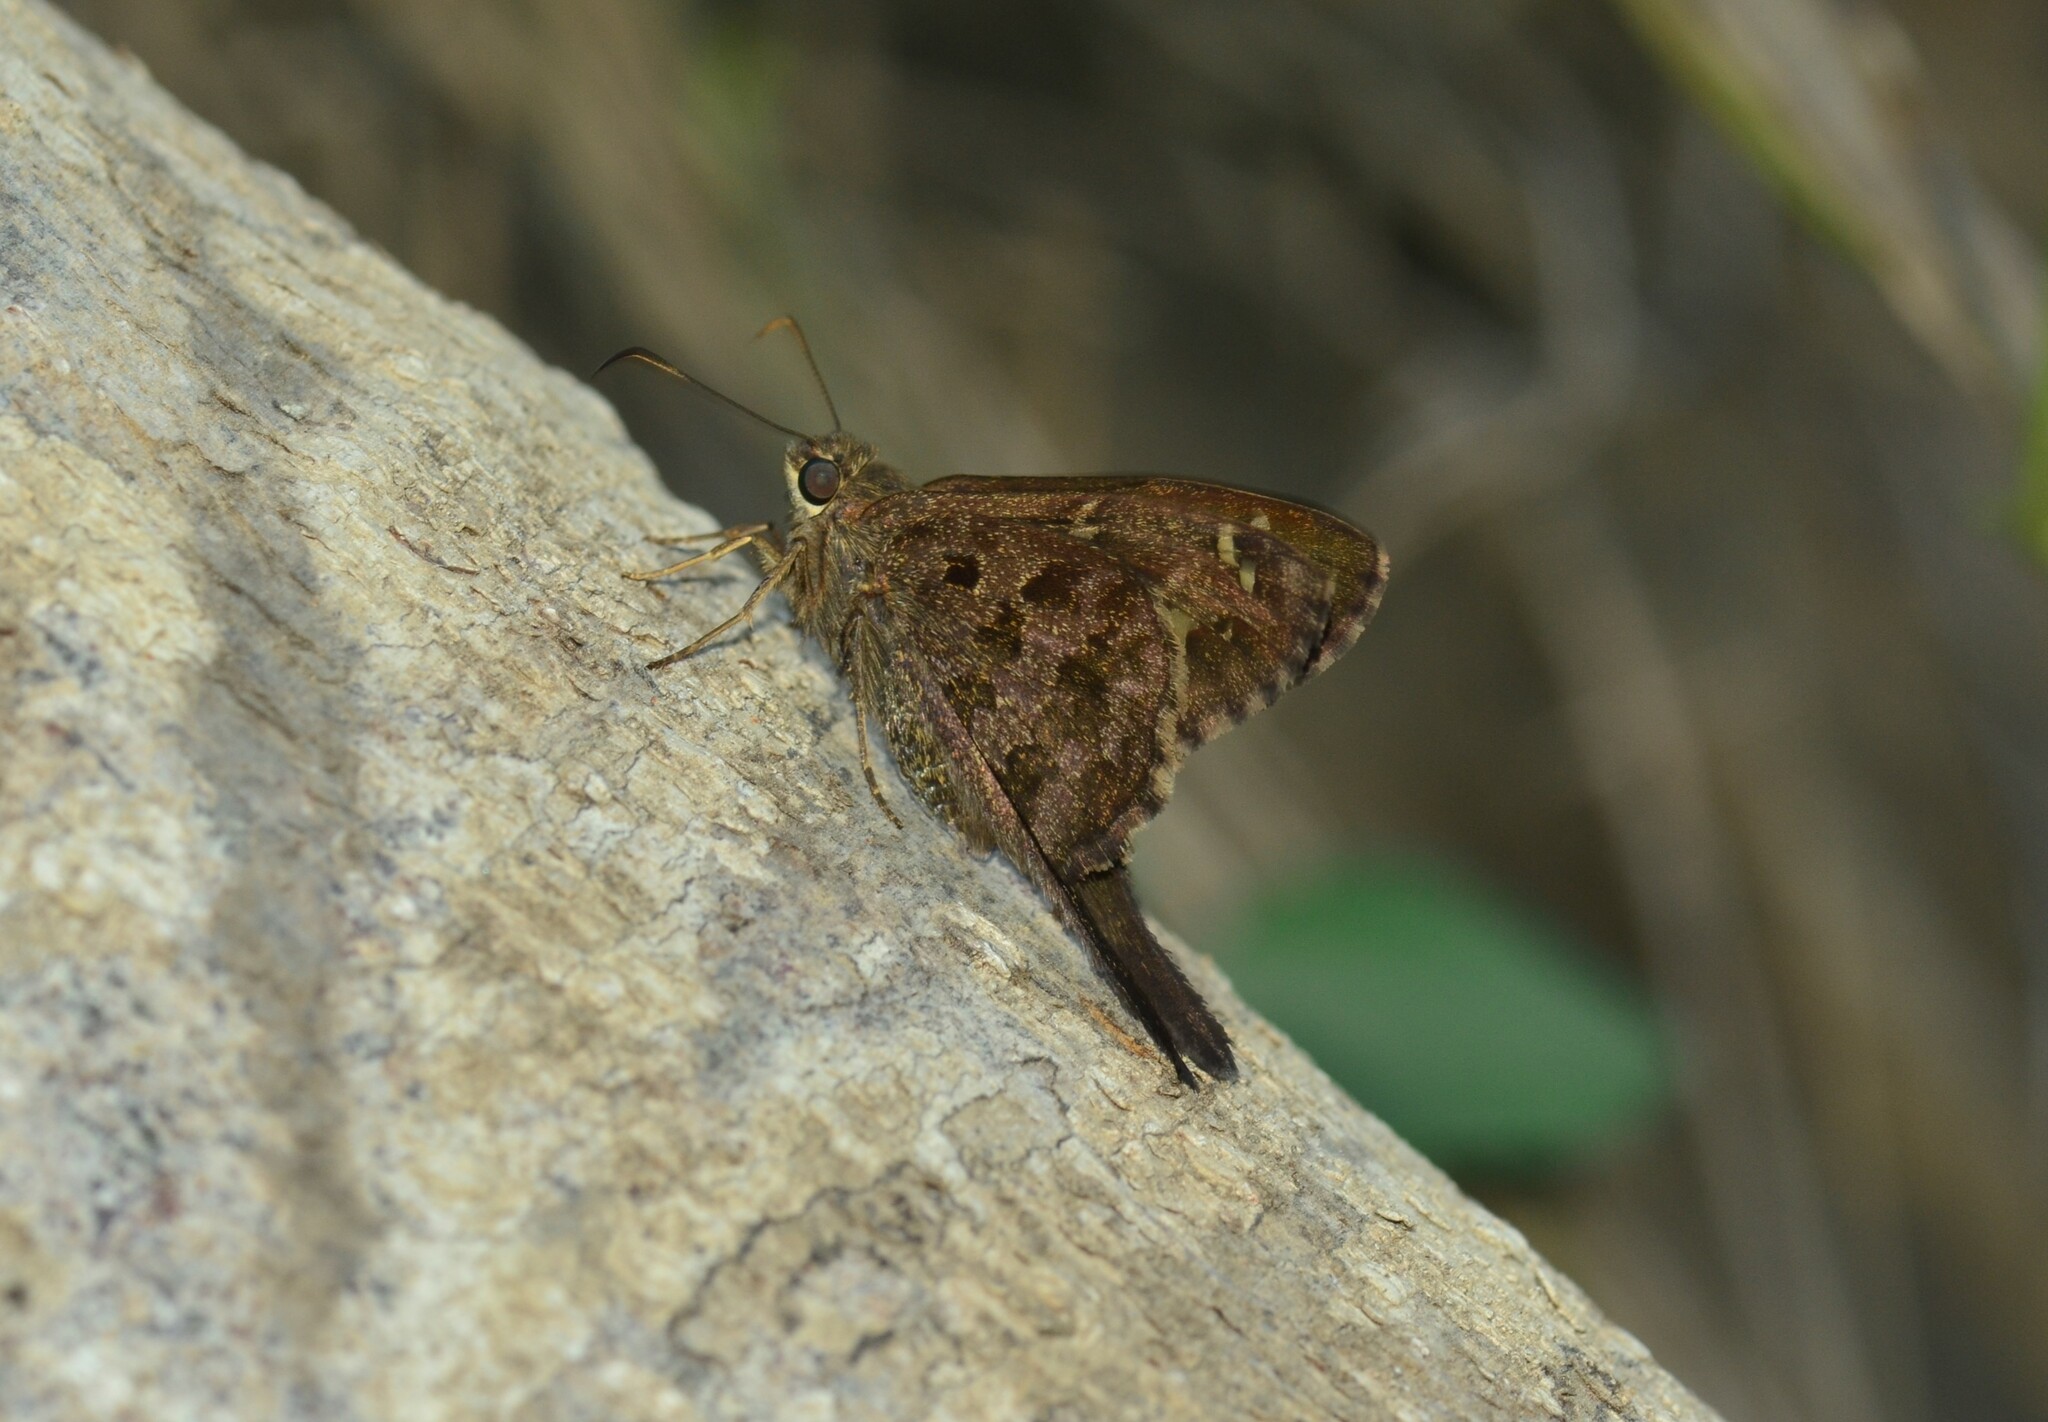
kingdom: Animalia
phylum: Arthropoda
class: Insecta
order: Lepidoptera
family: Hesperiidae
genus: Thorybes
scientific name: Thorybes
